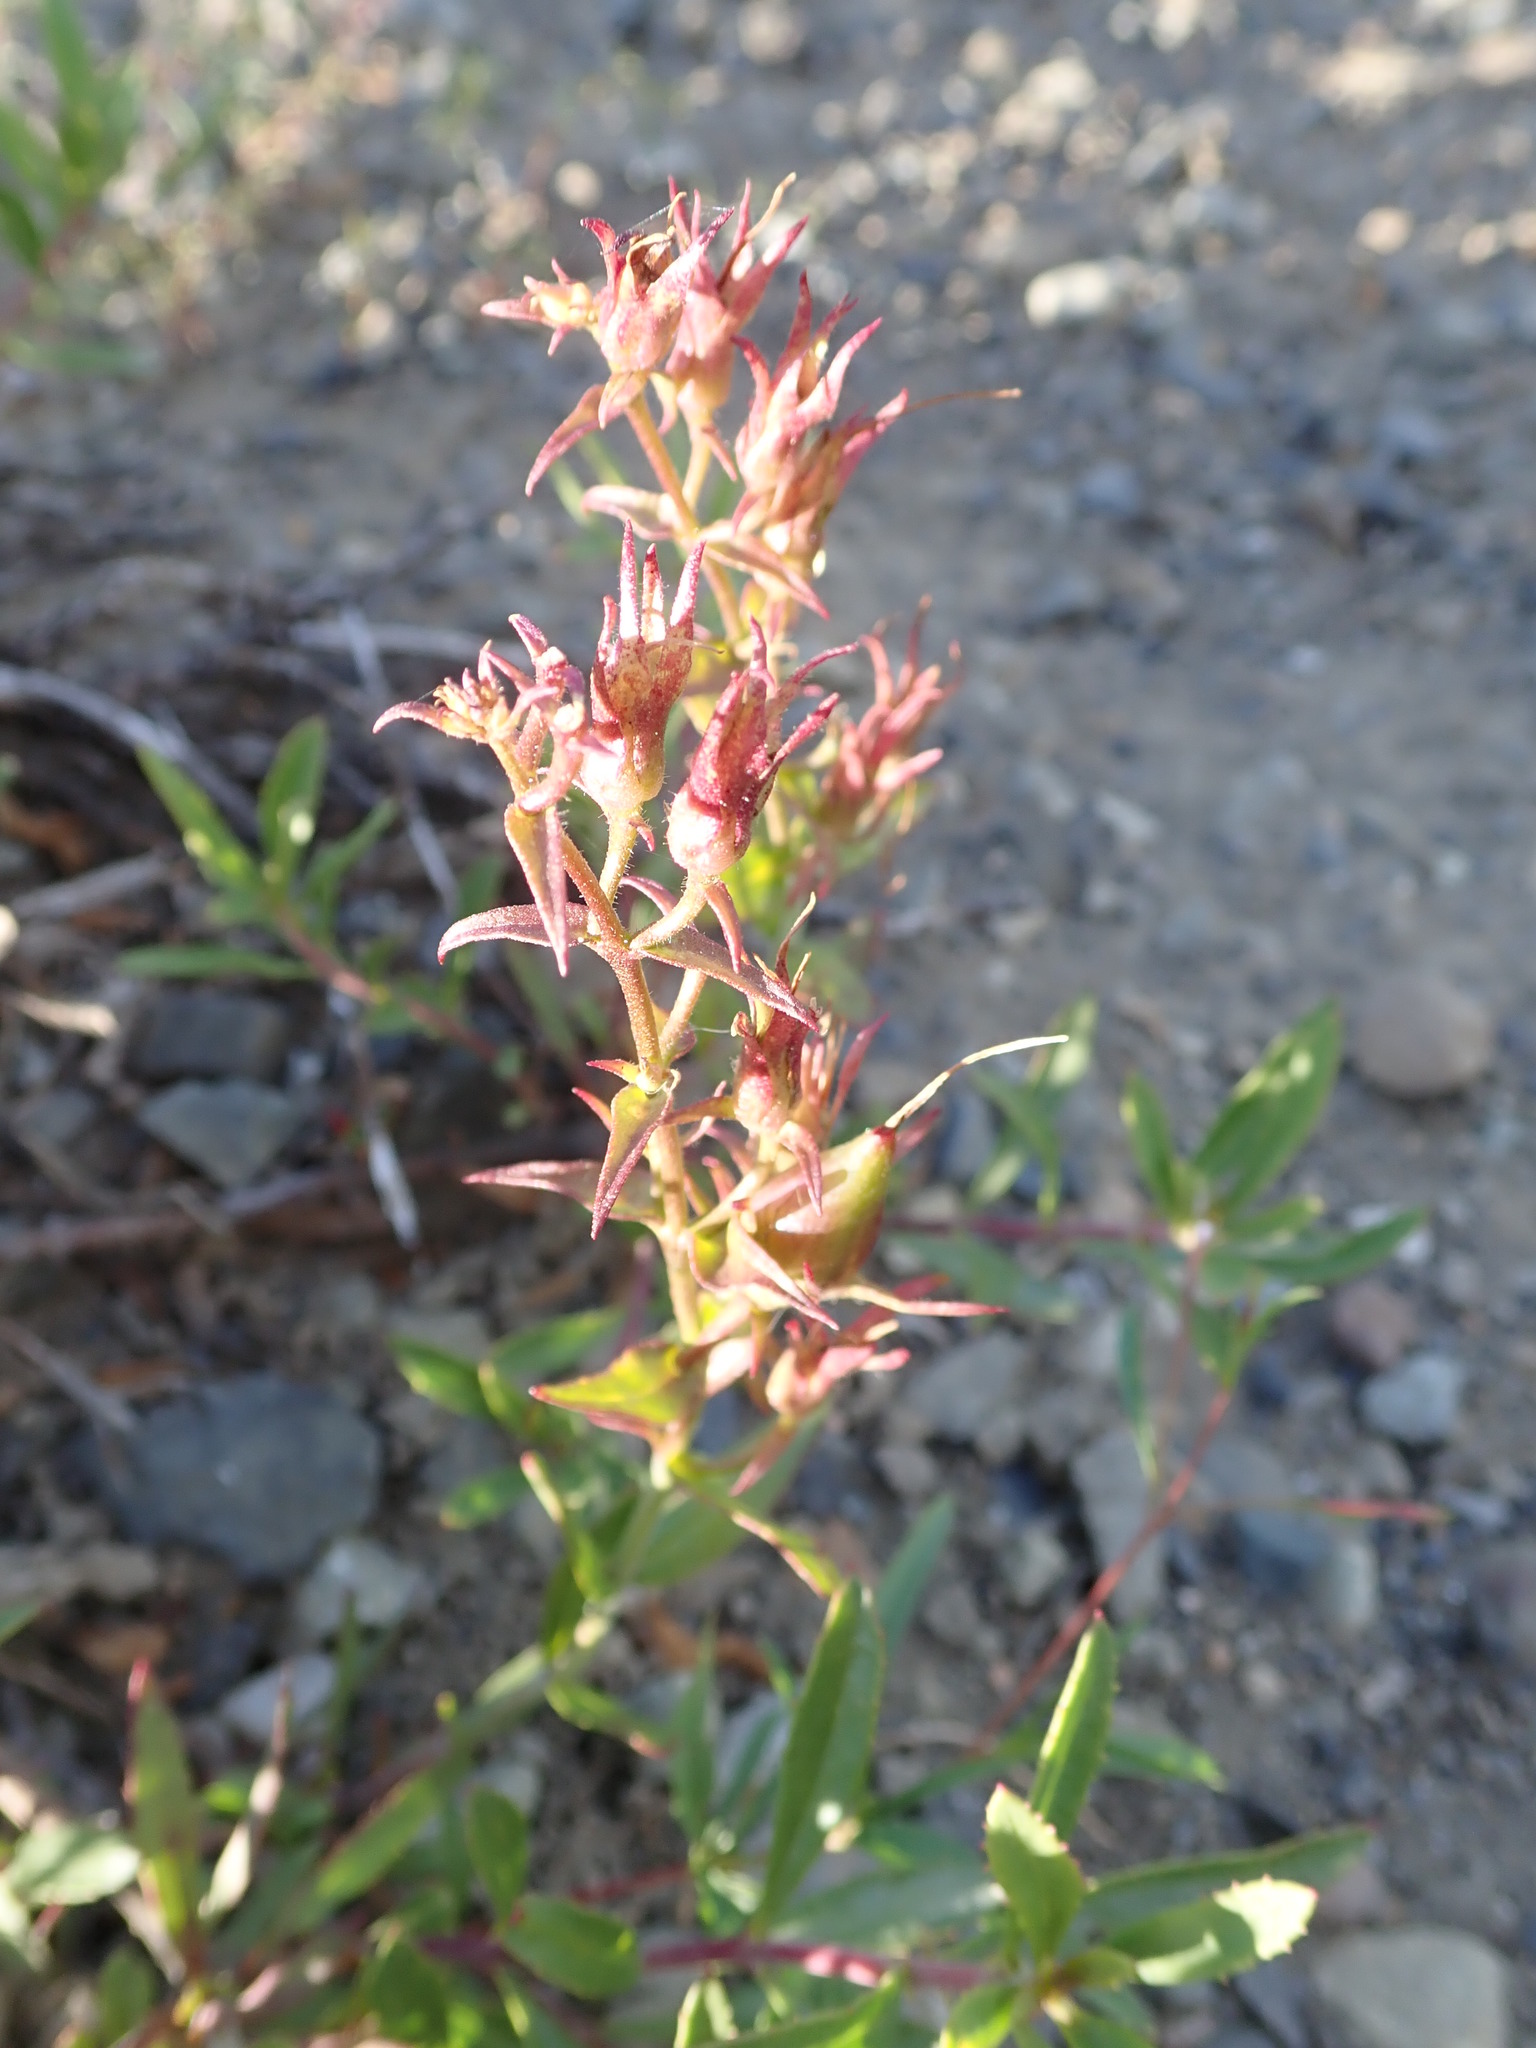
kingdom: Plantae
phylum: Tracheophyta
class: Magnoliopsida
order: Lamiales
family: Plantaginaceae
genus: Penstemon
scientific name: Penstemon fruticosus
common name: Bush penstemon
